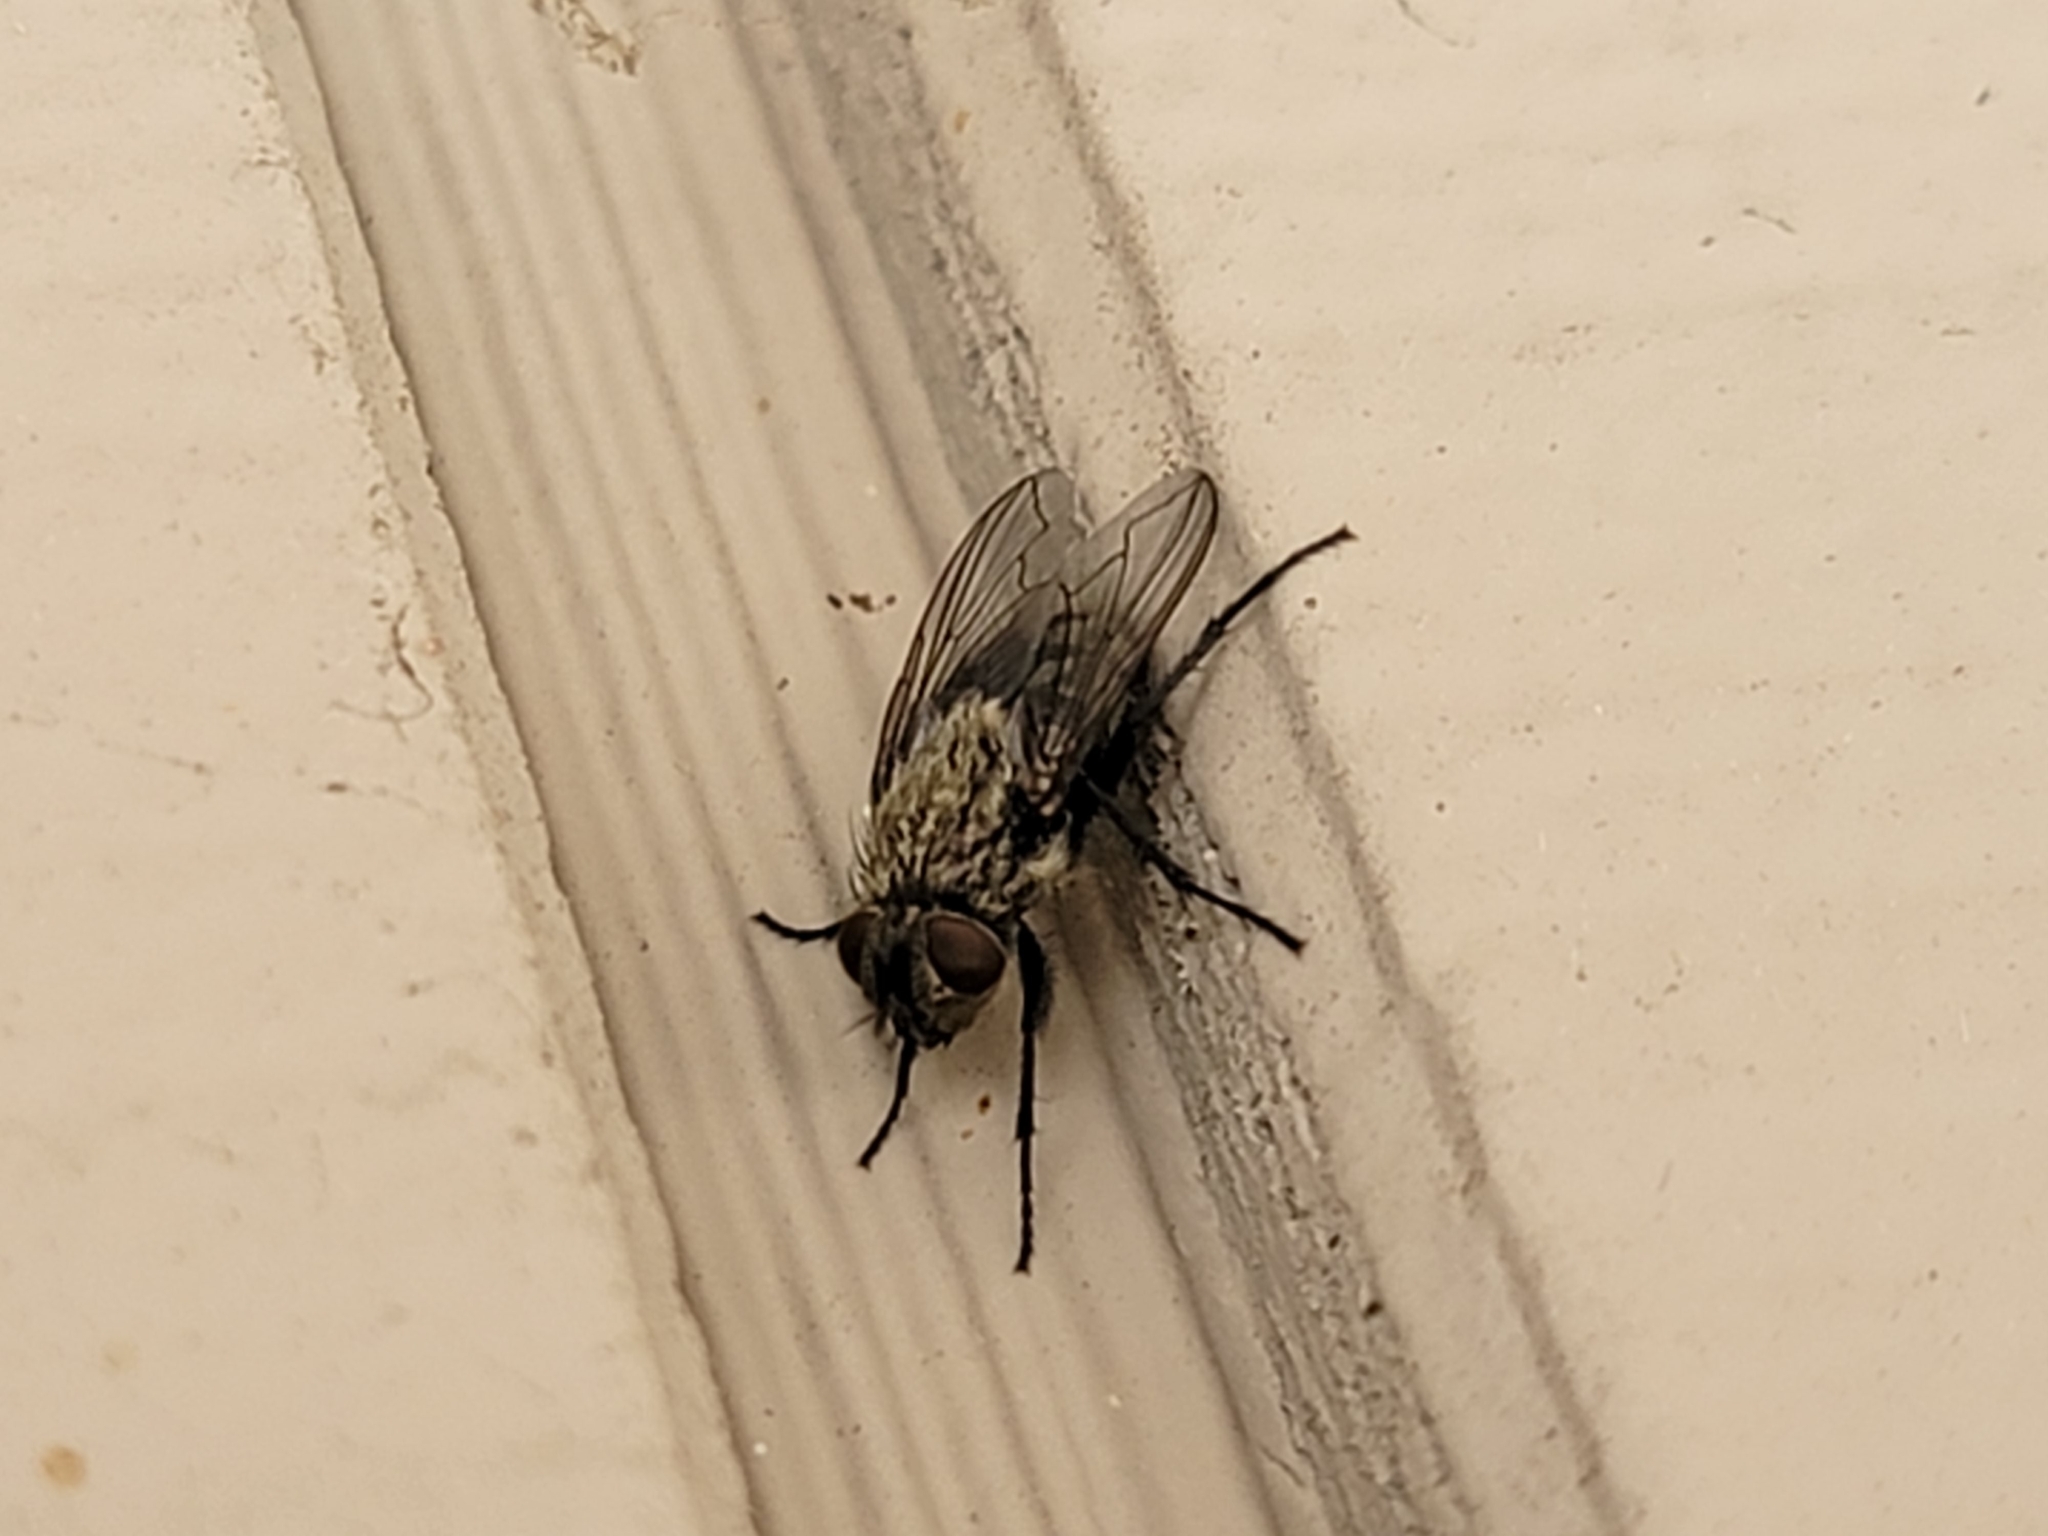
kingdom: Animalia
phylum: Arthropoda
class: Insecta
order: Diptera
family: Polleniidae
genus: Pollenia
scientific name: Pollenia
